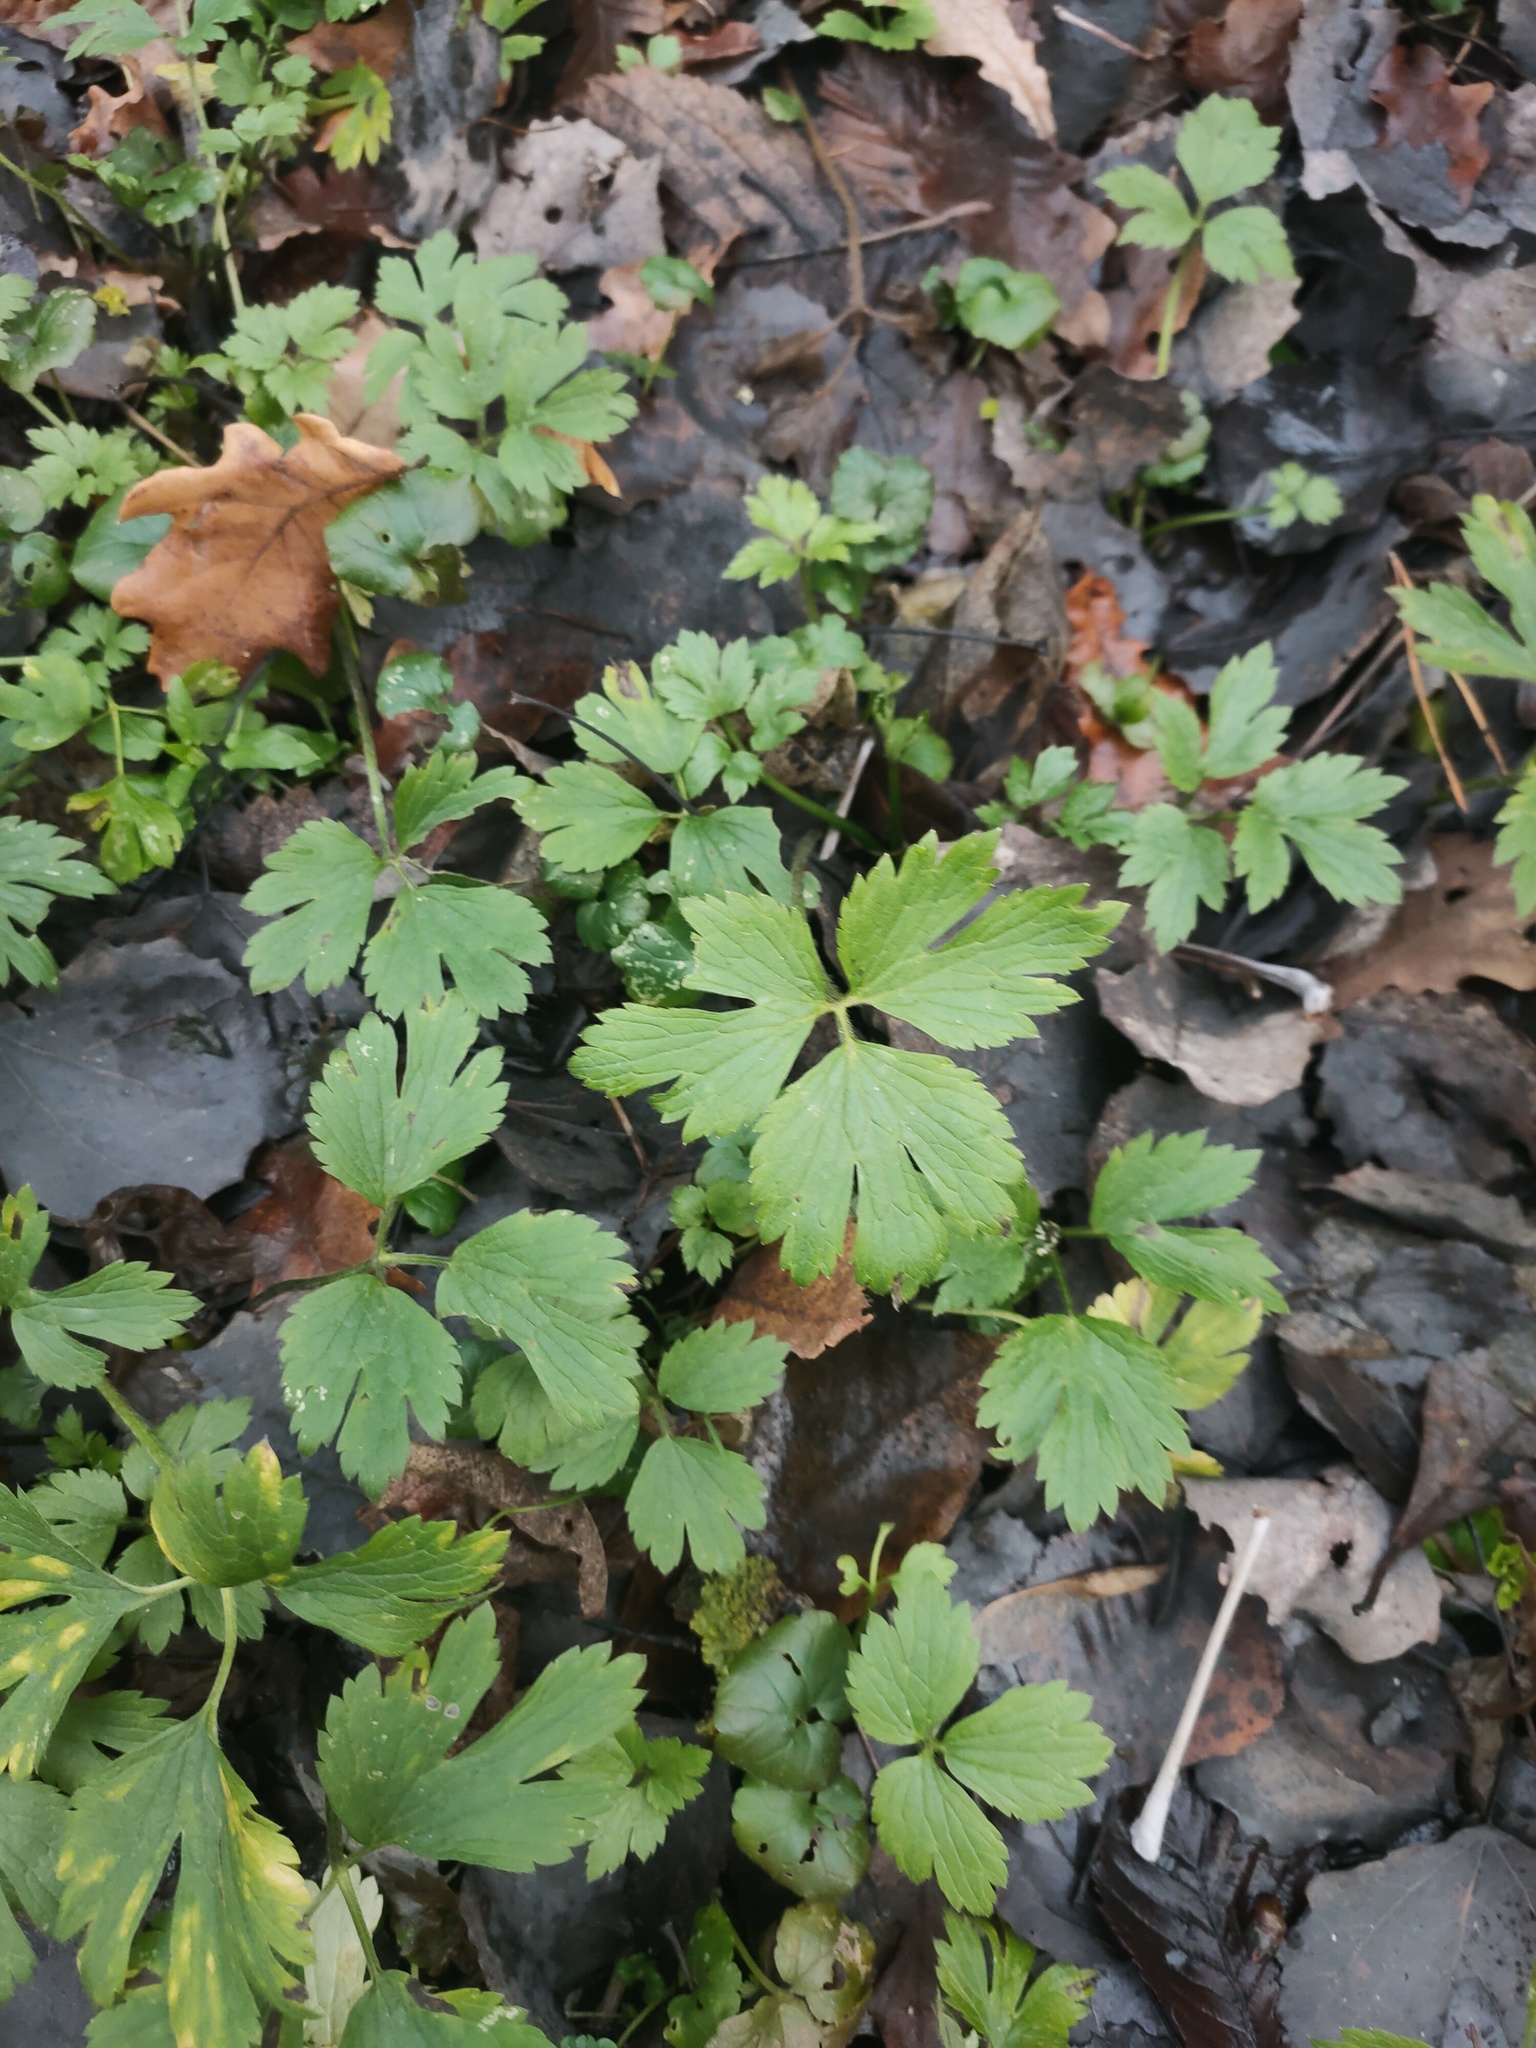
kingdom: Plantae
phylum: Tracheophyta
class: Magnoliopsida
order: Ranunculales
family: Ranunculaceae
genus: Ranunculus
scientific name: Ranunculus repens
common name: Creeping buttercup
